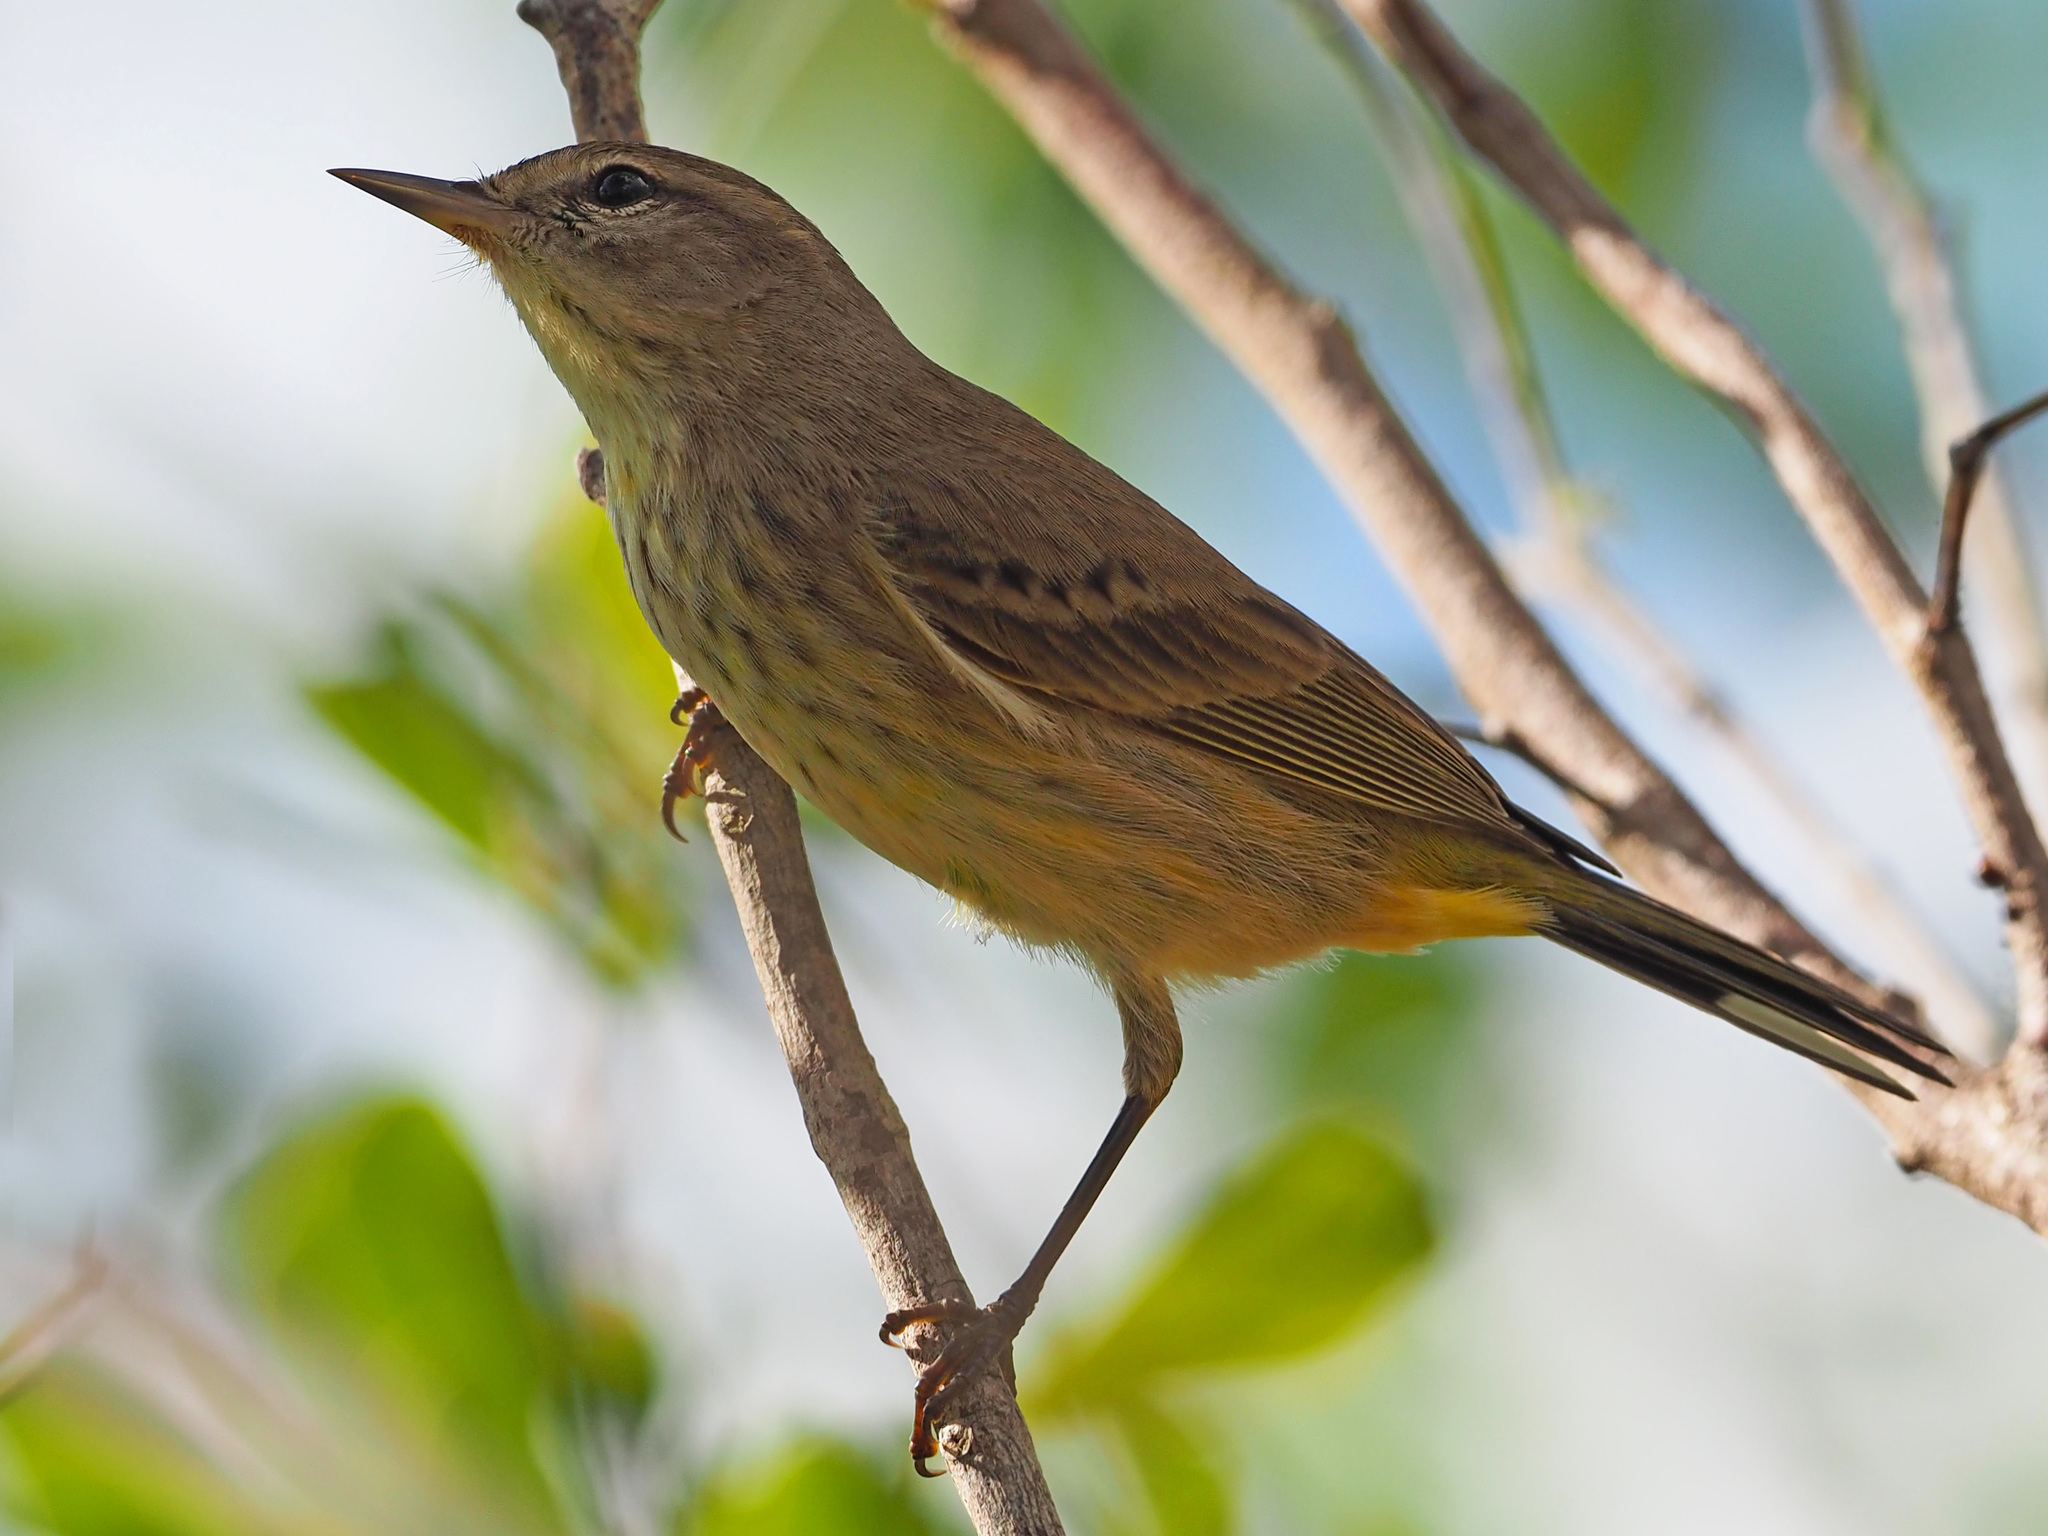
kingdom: Animalia
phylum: Chordata
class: Aves
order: Passeriformes
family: Parulidae
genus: Setophaga
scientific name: Setophaga palmarum
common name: Palm warbler
